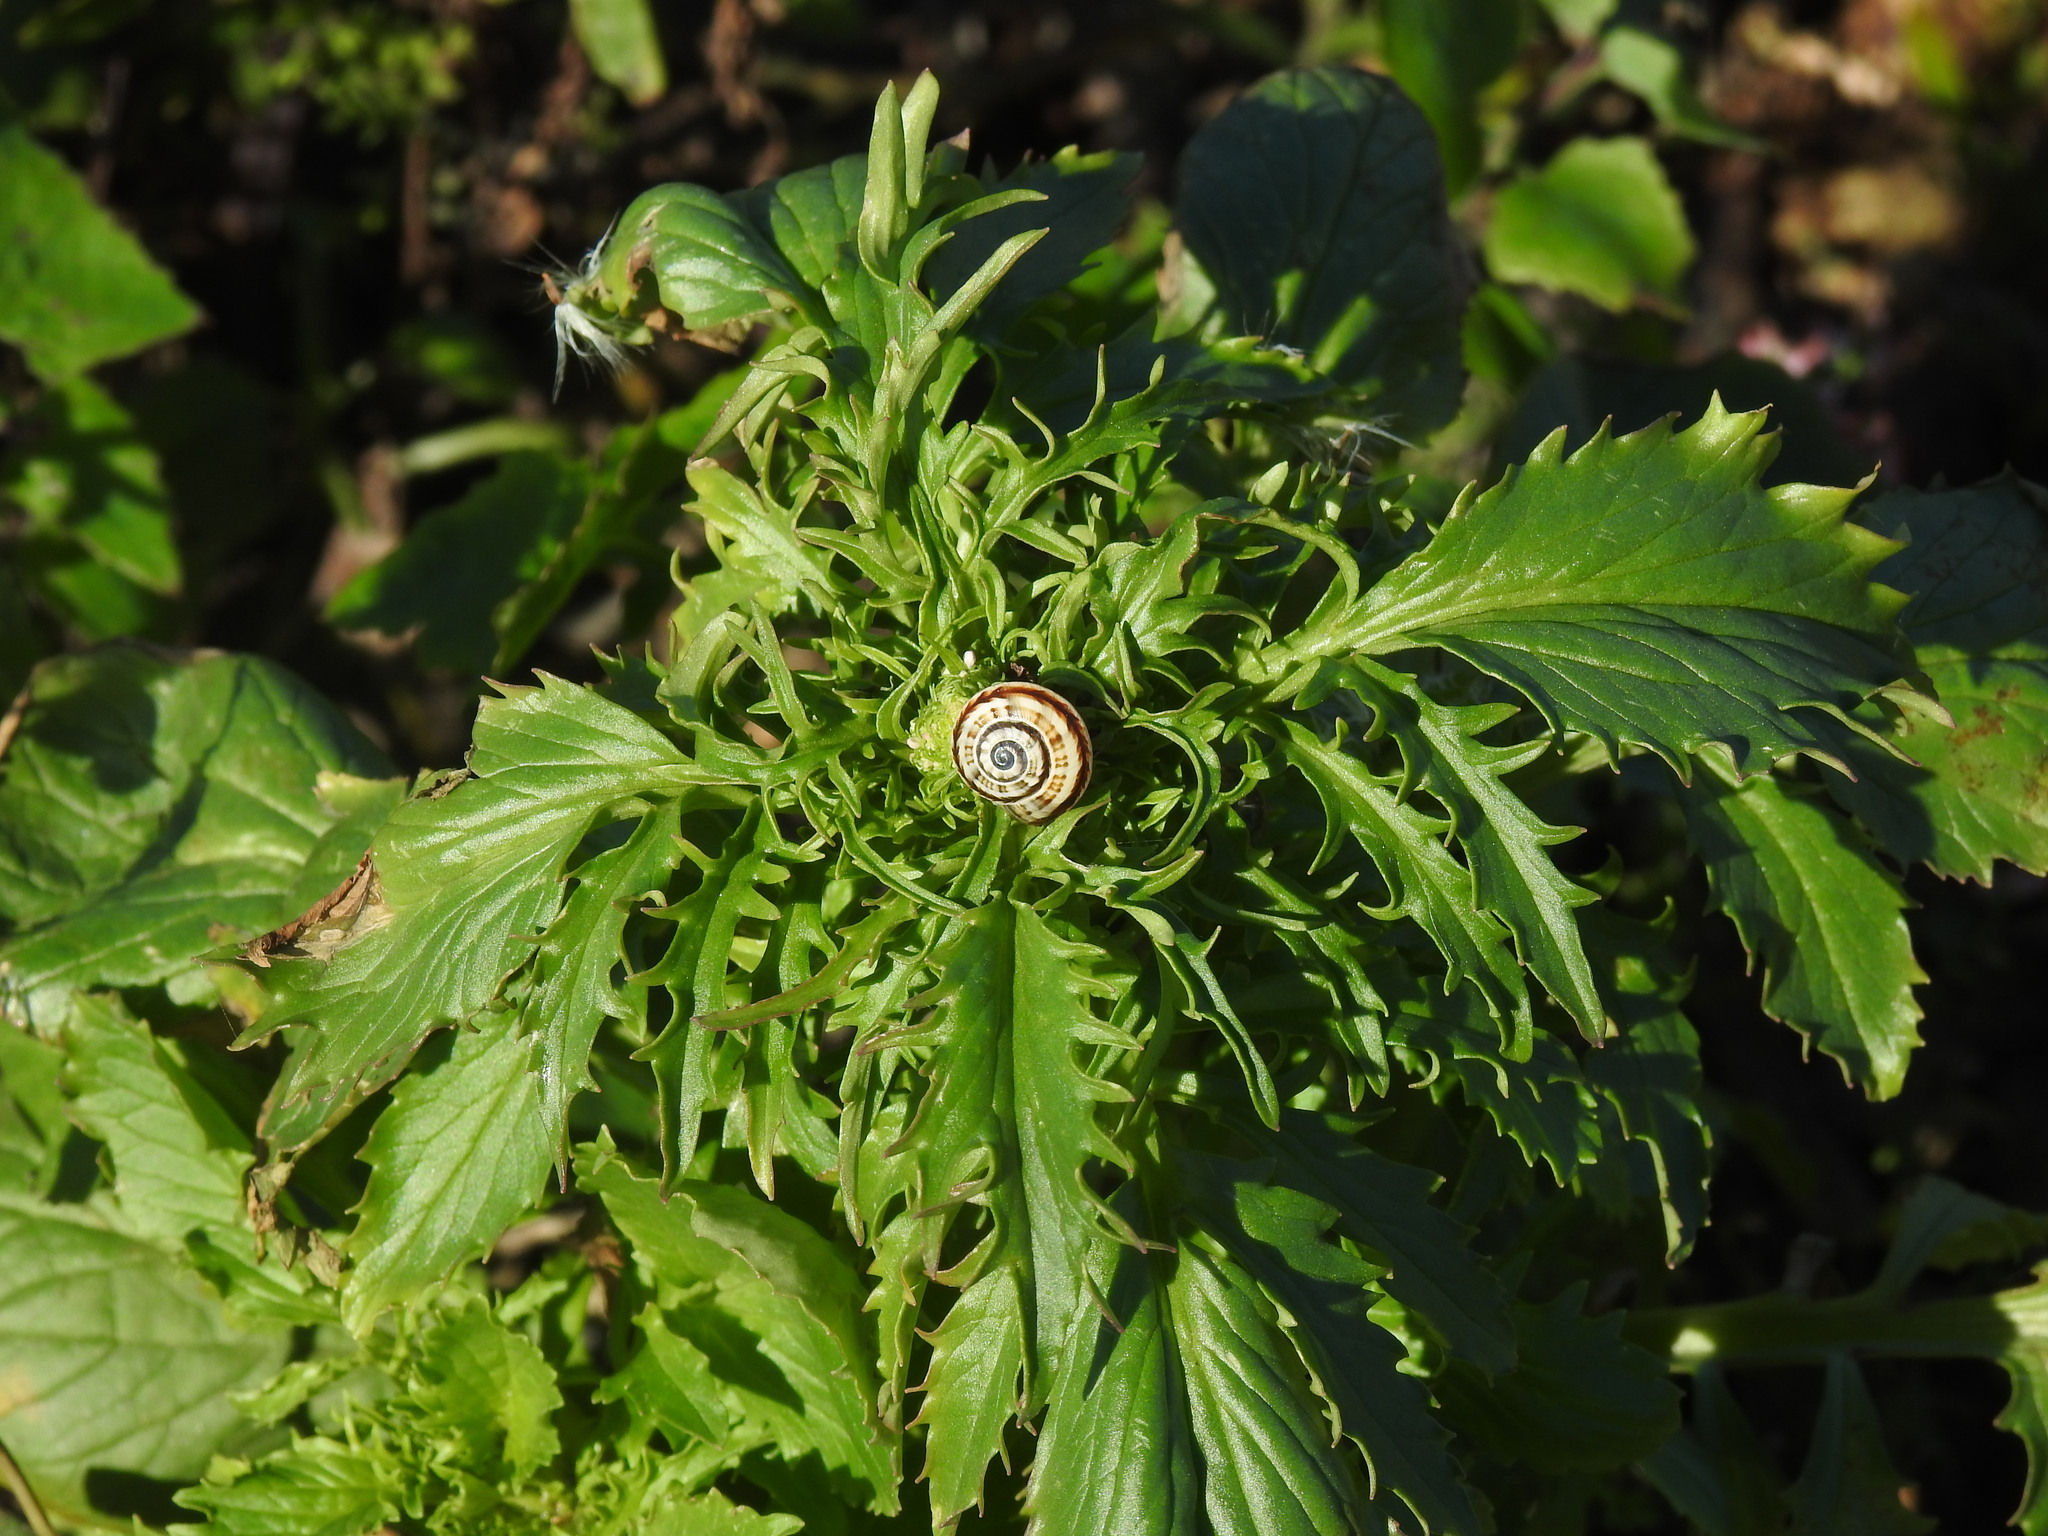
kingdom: Animalia
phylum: Mollusca
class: Gastropoda
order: Stylommatophora
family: Helicidae
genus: Theba
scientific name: Theba pisana
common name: White snail
